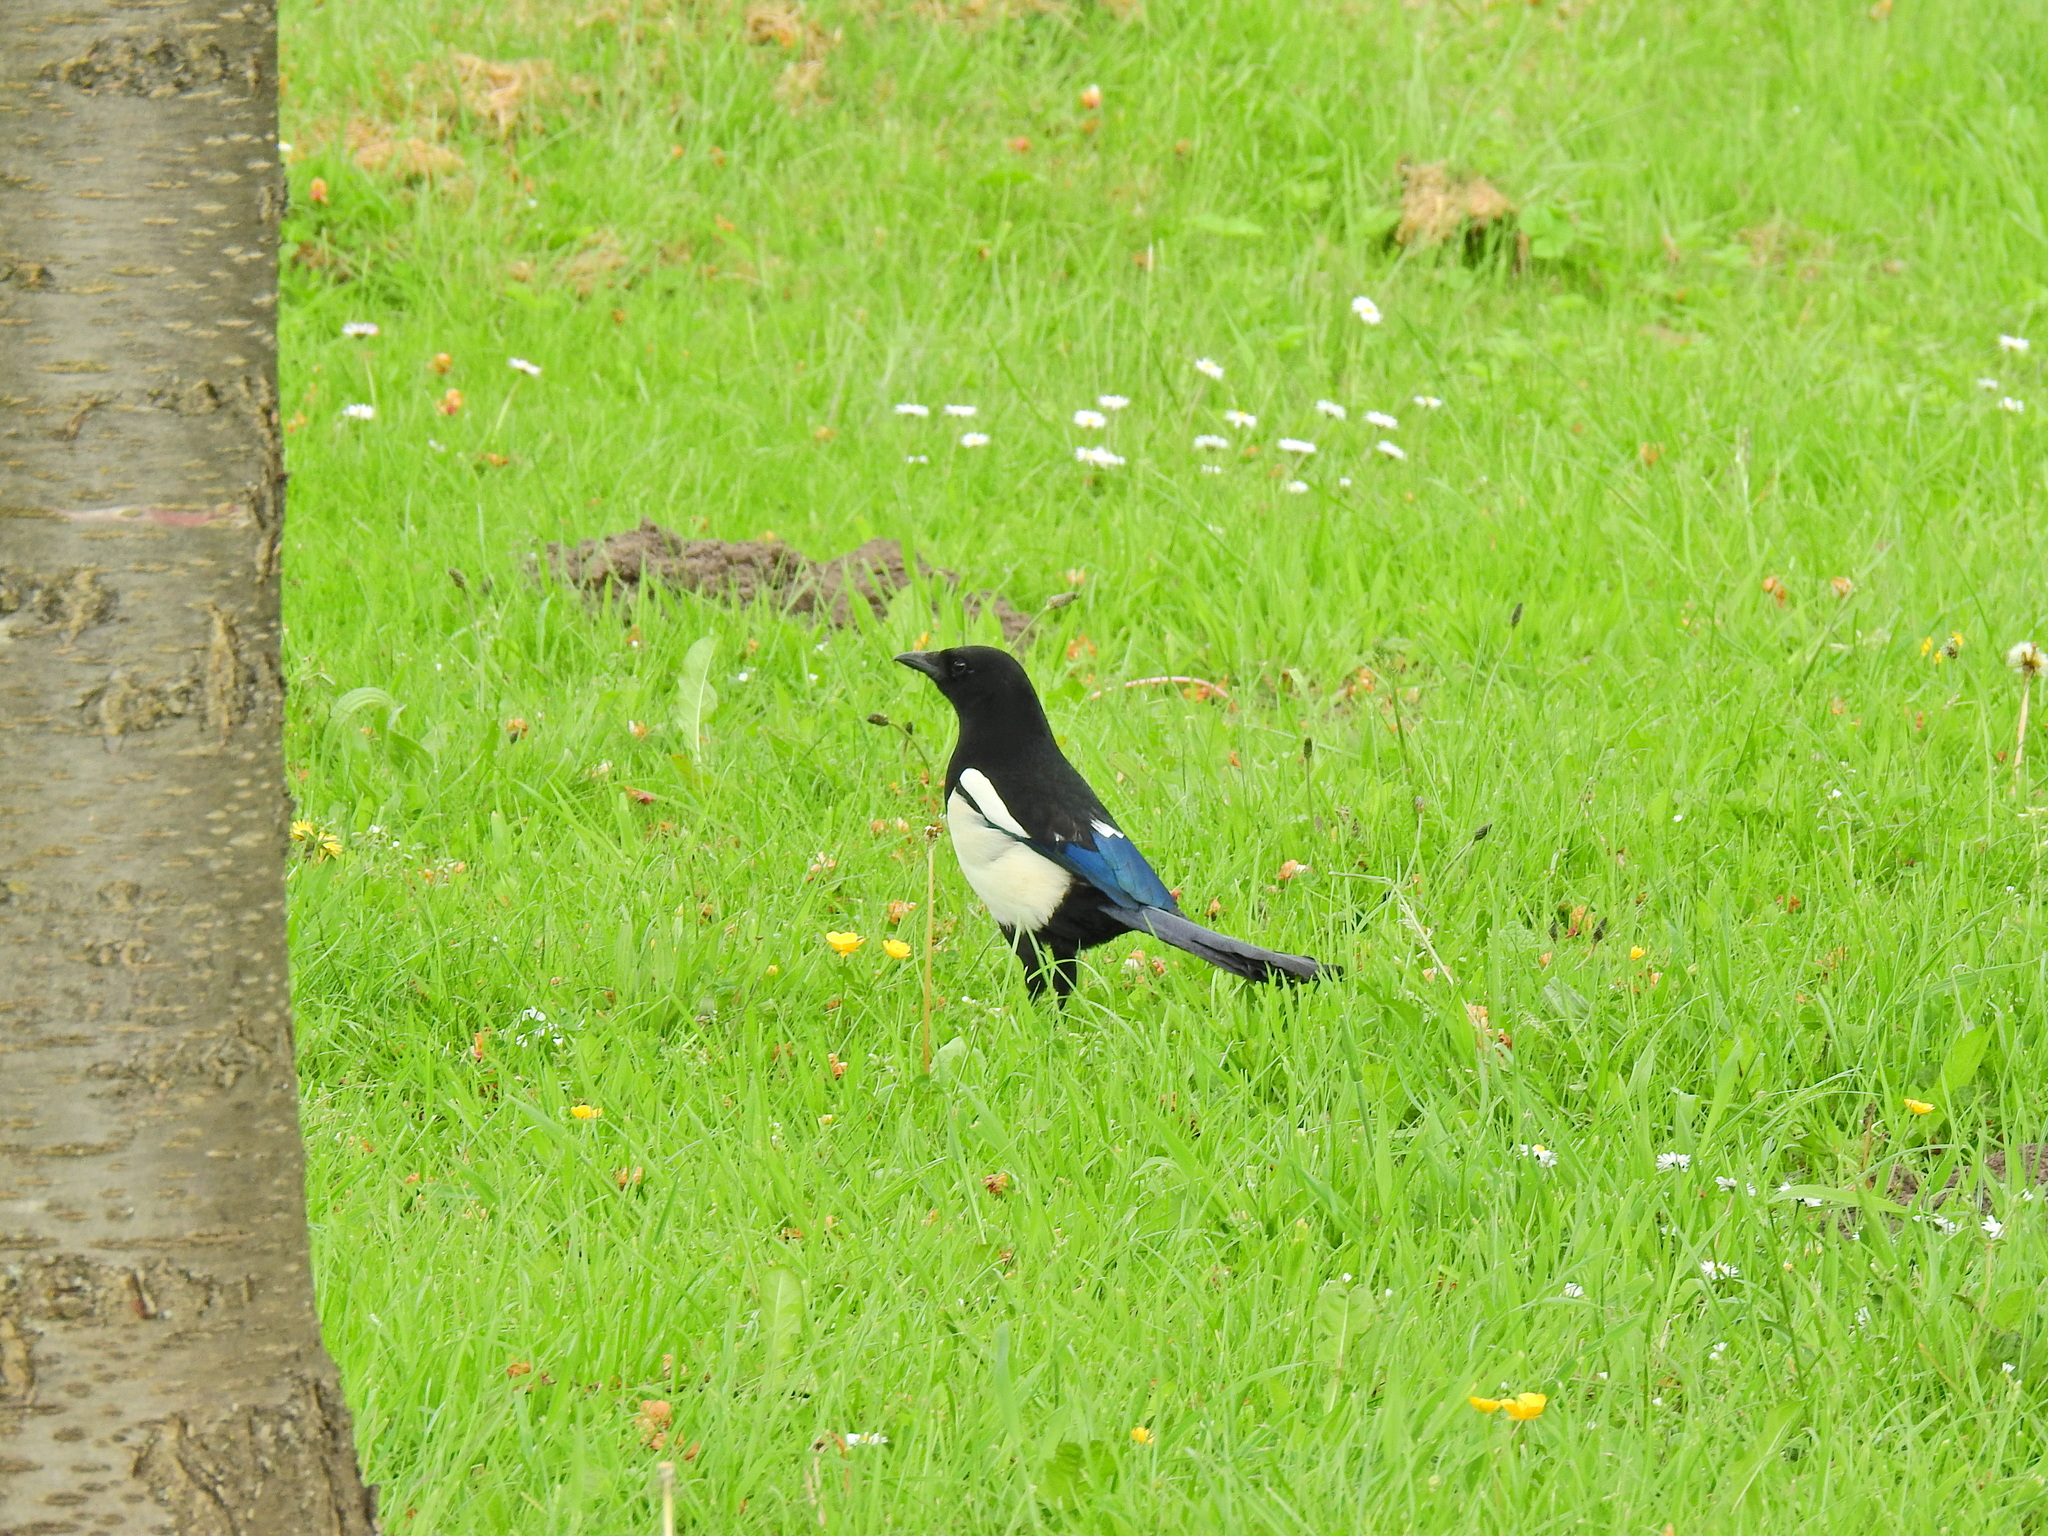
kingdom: Animalia
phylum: Chordata
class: Aves
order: Passeriformes
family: Corvidae
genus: Pica
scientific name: Pica pica
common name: Eurasian magpie
